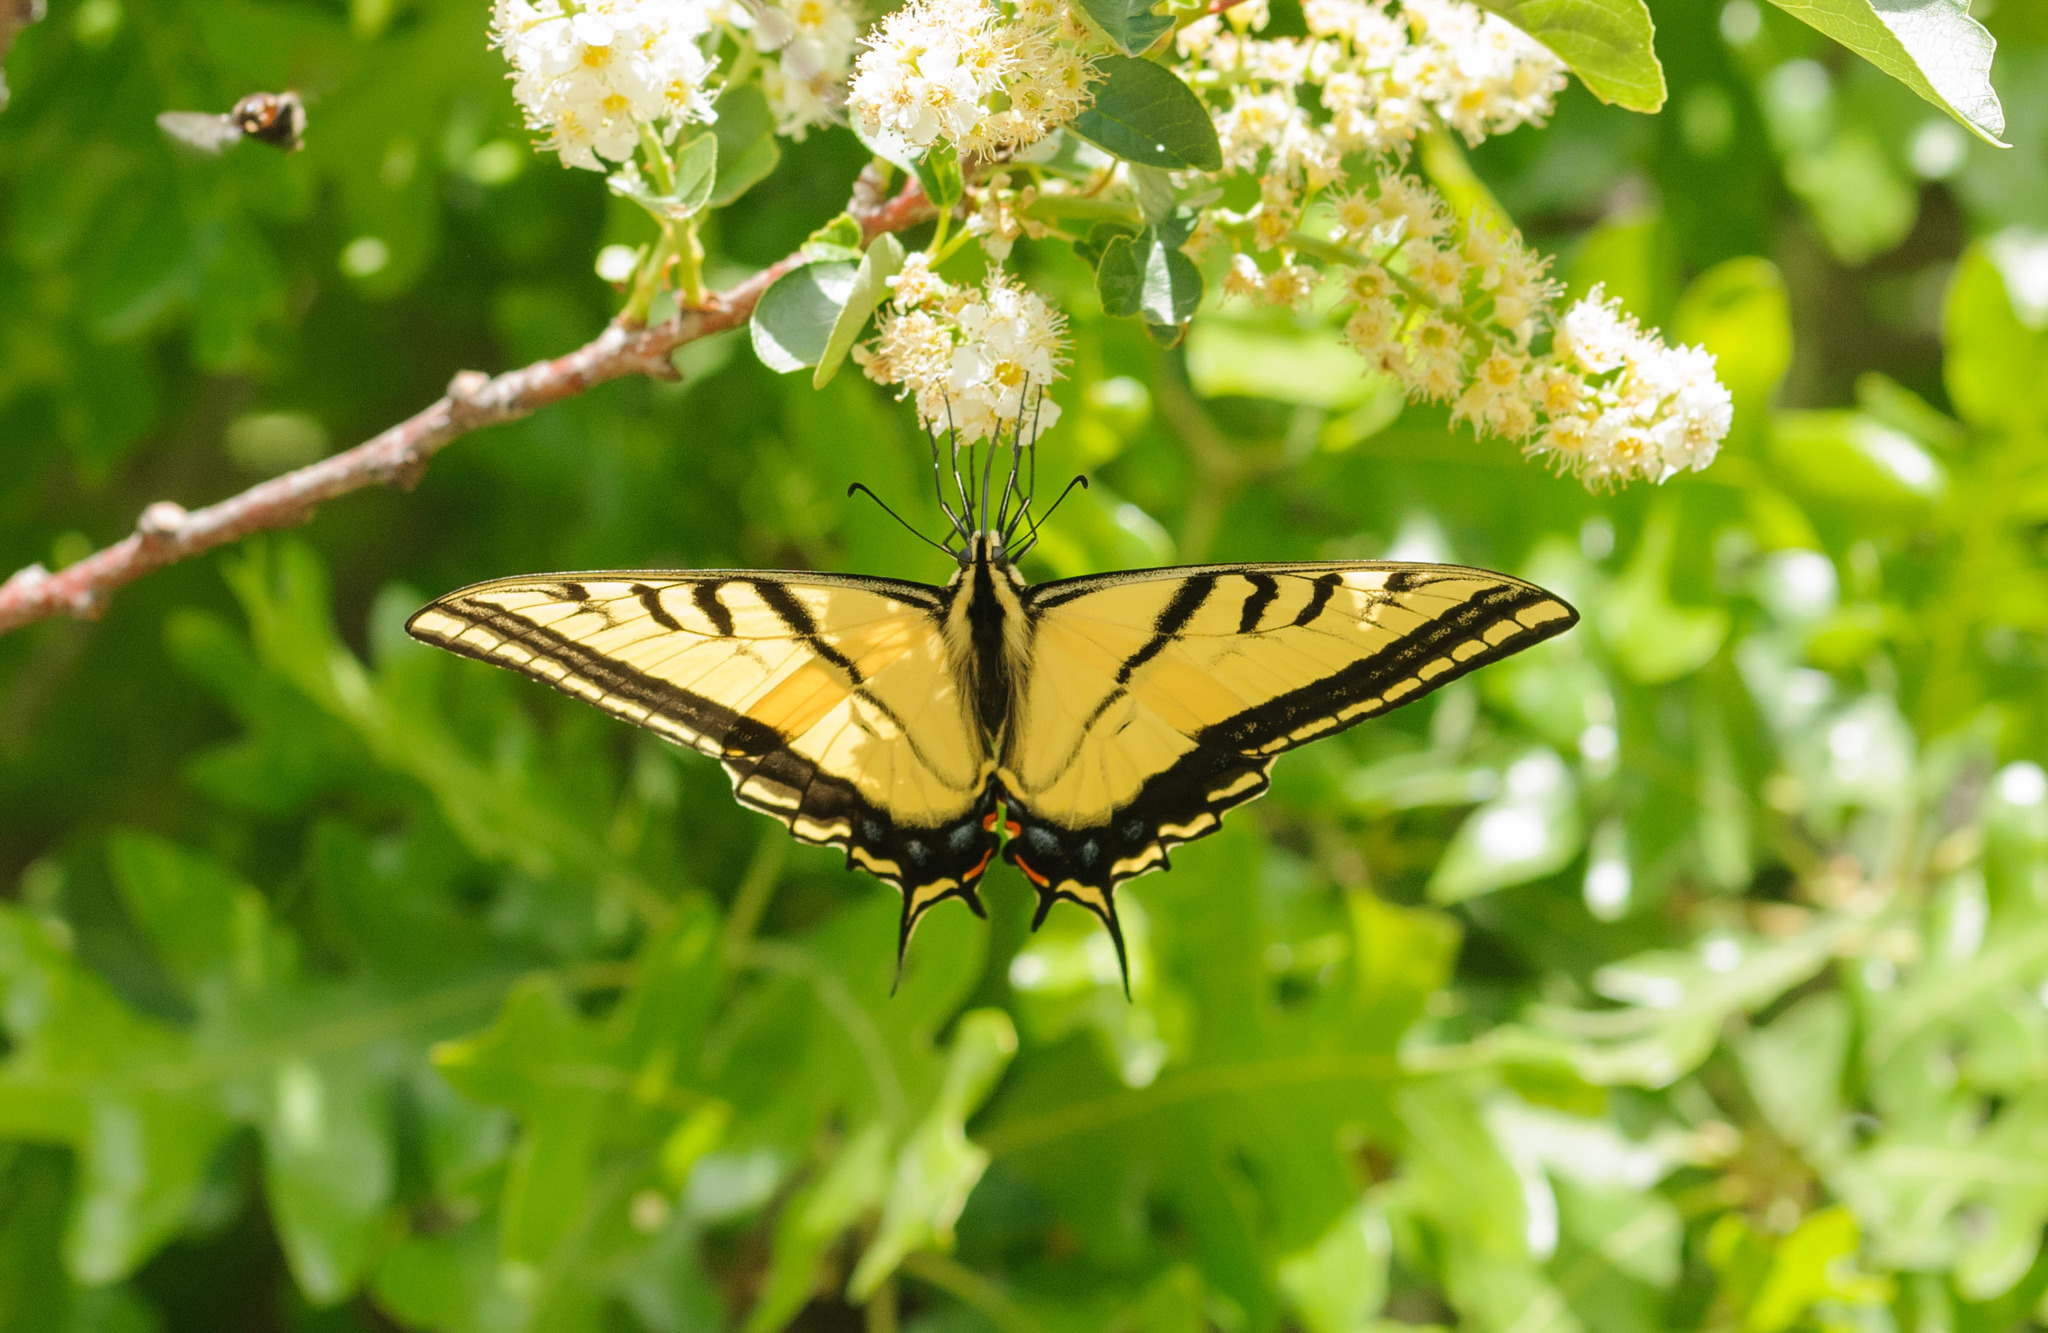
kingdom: Animalia
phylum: Arthropoda
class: Insecta
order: Lepidoptera
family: Papilionidae
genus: Papilio
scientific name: Papilio multicaudata
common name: Two-tailed tiger swallowtail
